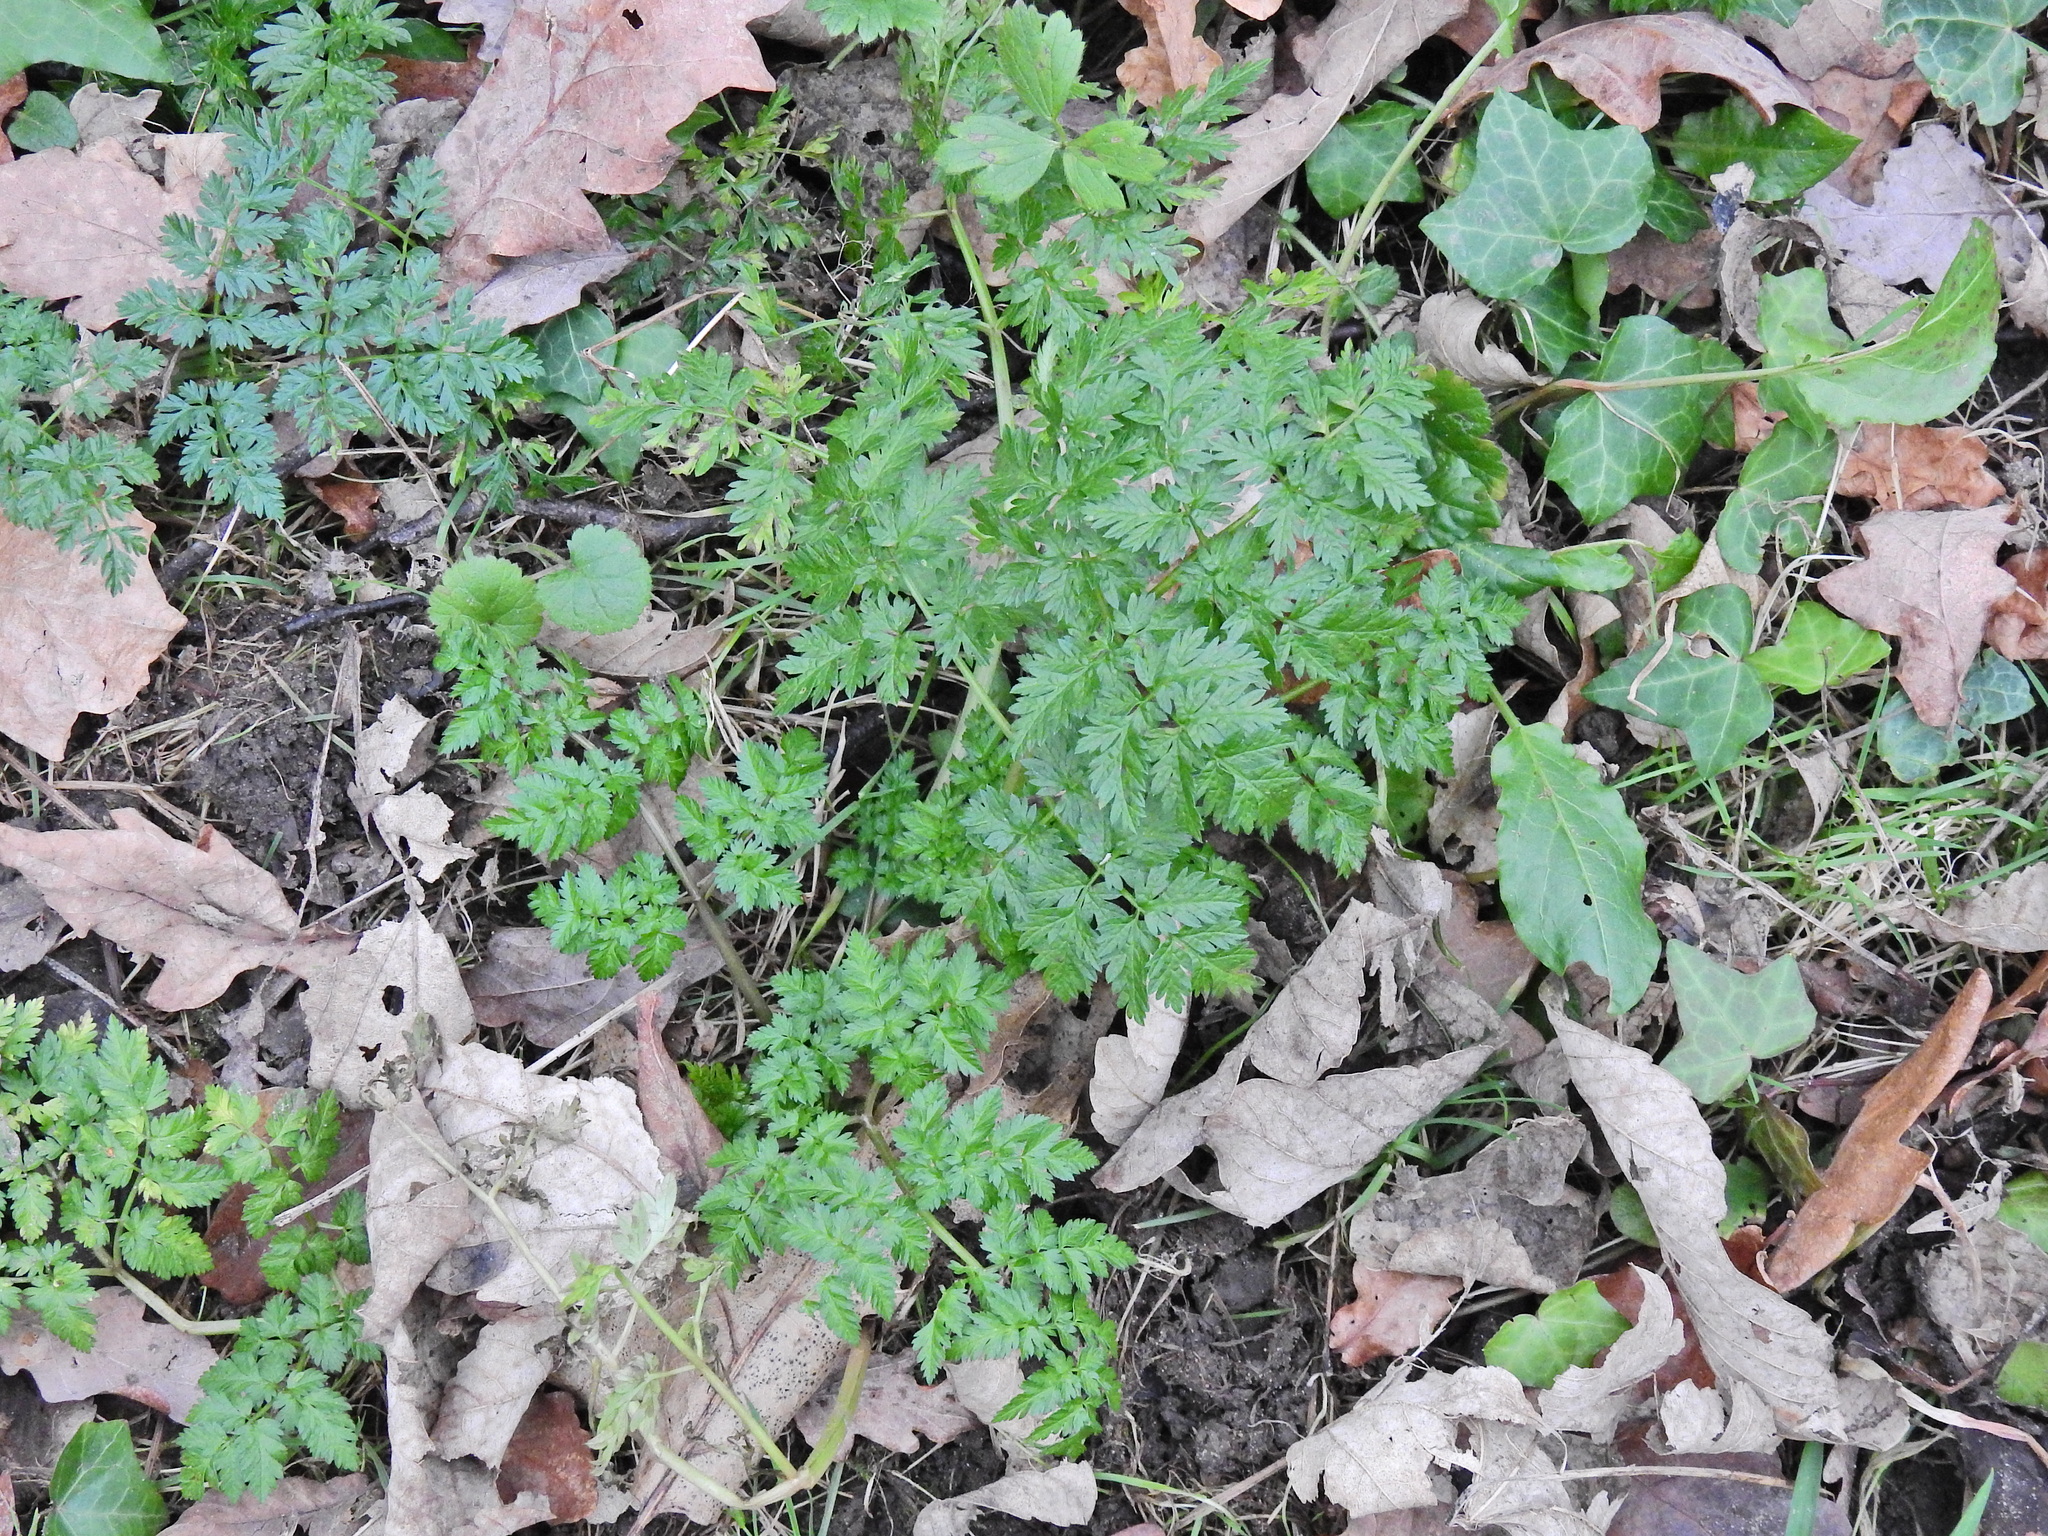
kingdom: Plantae
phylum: Tracheophyta
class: Magnoliopsida
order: Apiales
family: Apiaceae
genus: Anthriscus
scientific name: Anthriscus sylvestris
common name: Cow parsley
